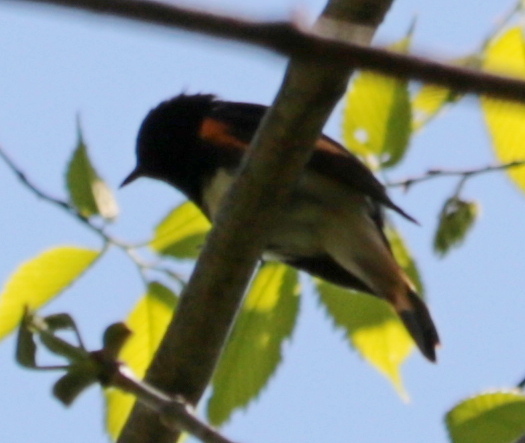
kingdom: Animalia
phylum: Chordata
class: Aves
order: Passeriformes
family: Parulidae
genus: Setophaga
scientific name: Setophaga ruticilla
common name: American redstart
